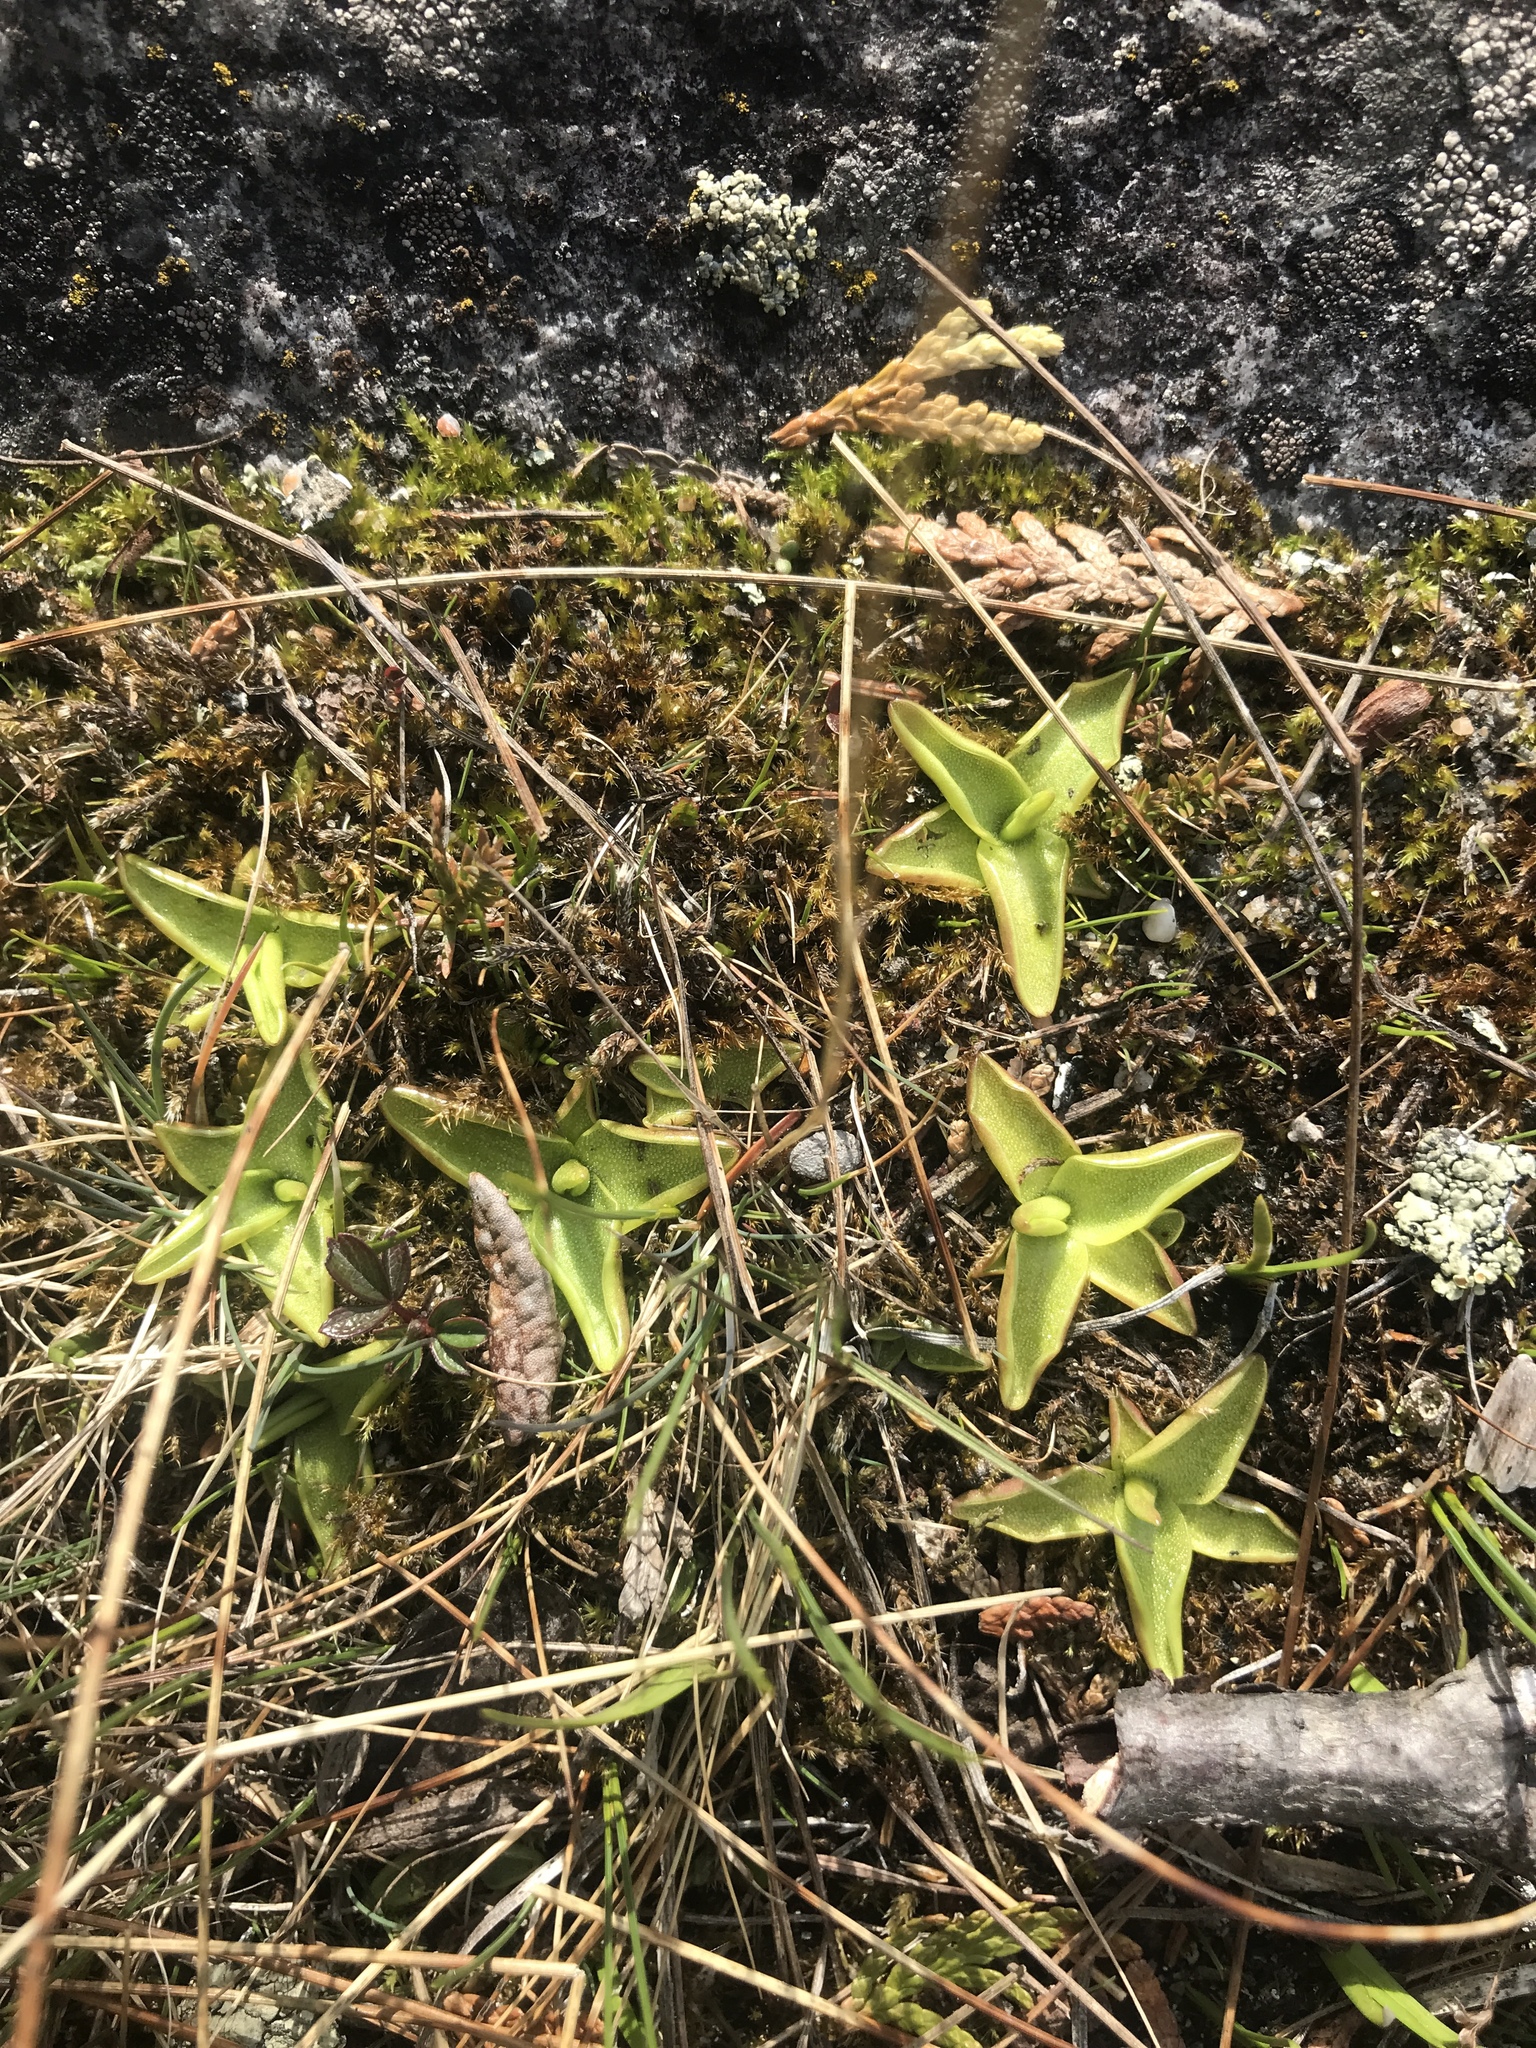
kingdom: Plantae
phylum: Tracheophyta
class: Magnoliopsida
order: Lamiales
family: Lentibulariaceae
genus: Pinguicula
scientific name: Pinguicula vulgaris
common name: Common butterwort
